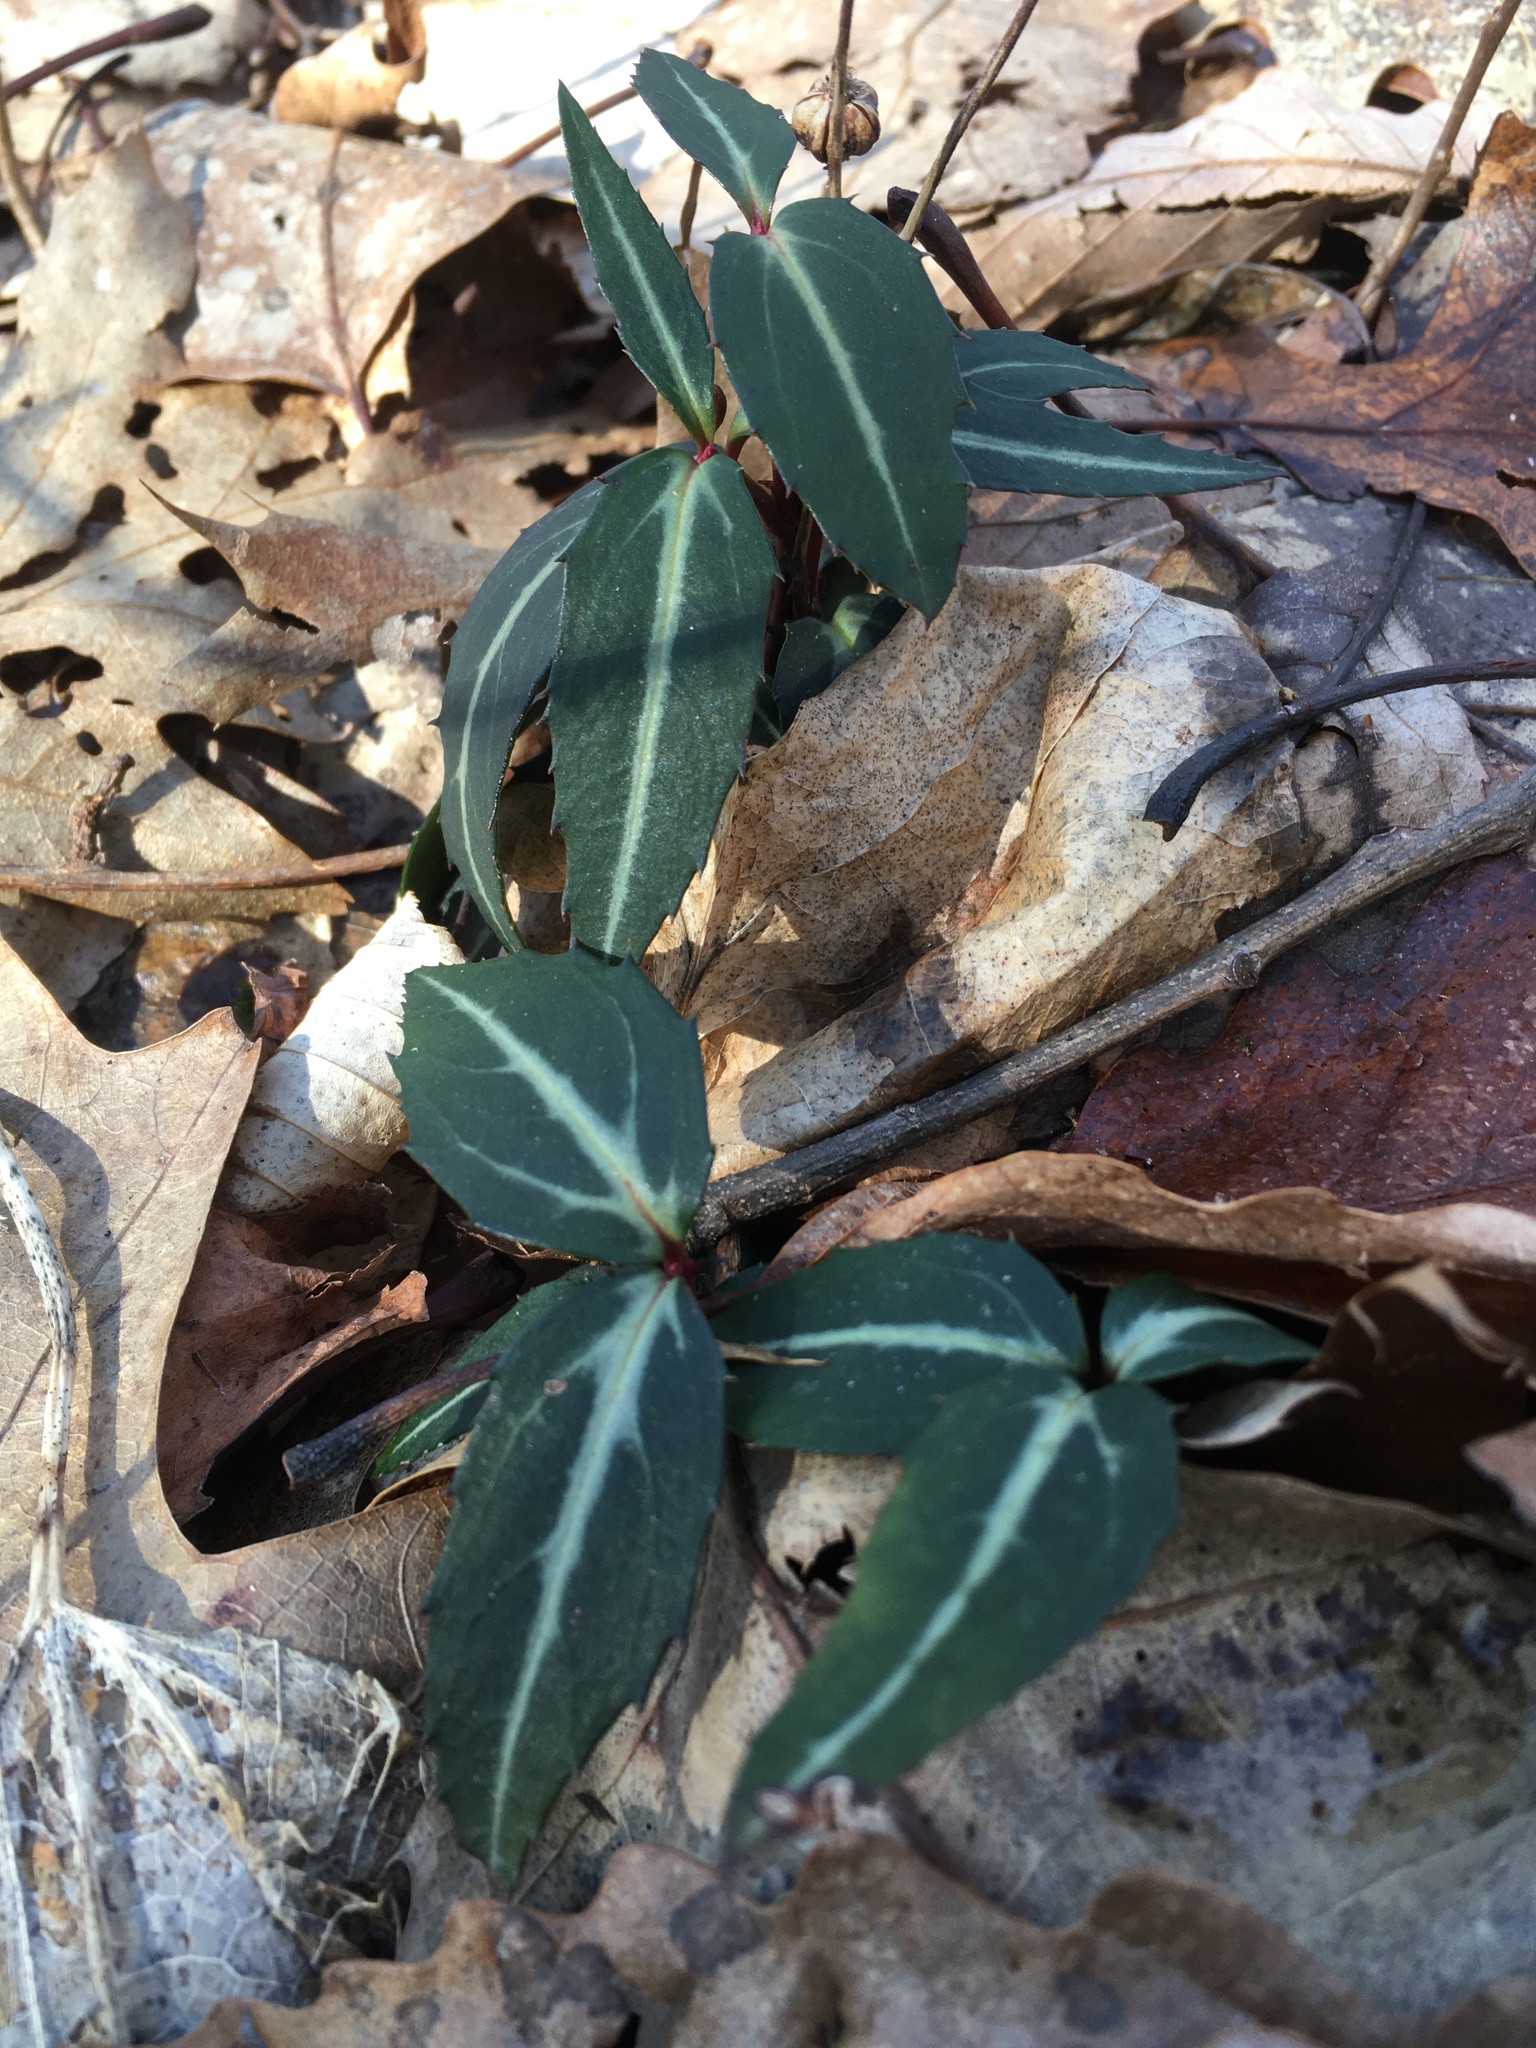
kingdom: Plantae
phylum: Tracheophyta
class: Magnoliopsida
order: Ericales
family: Ericaceae
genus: Chimaphila
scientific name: Chimaphila maculata
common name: Spotted pipsissewa
